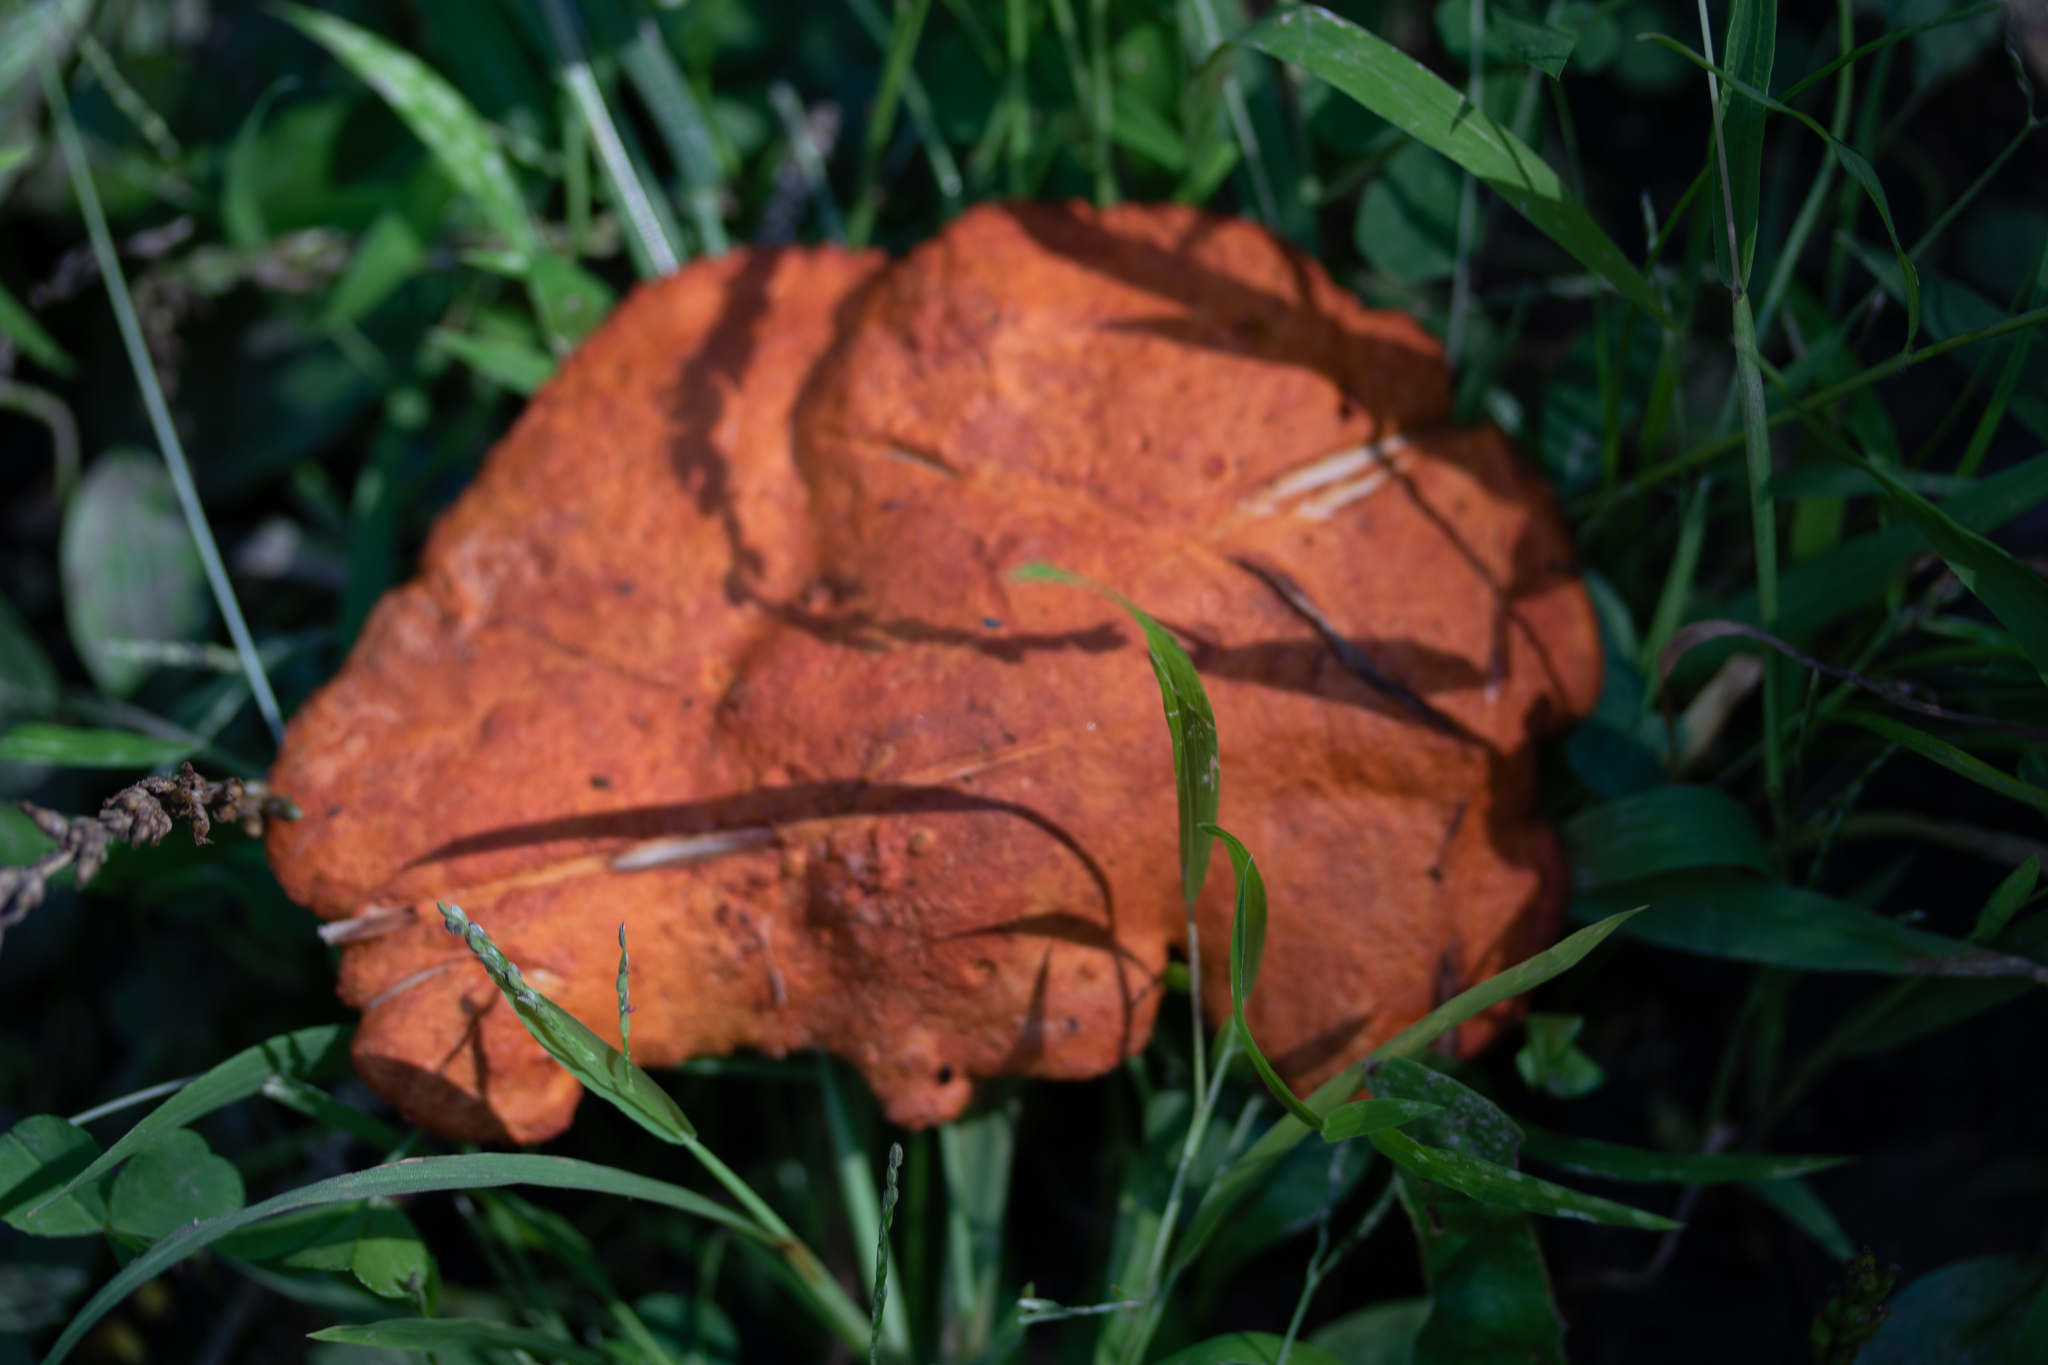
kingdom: Fungi
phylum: Basidiomycota
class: Agaricomycetes
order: Polyporales
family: Polyporaceae
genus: Trametes
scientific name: Trametes cinnabarina
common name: Northern cinnabar polypore
